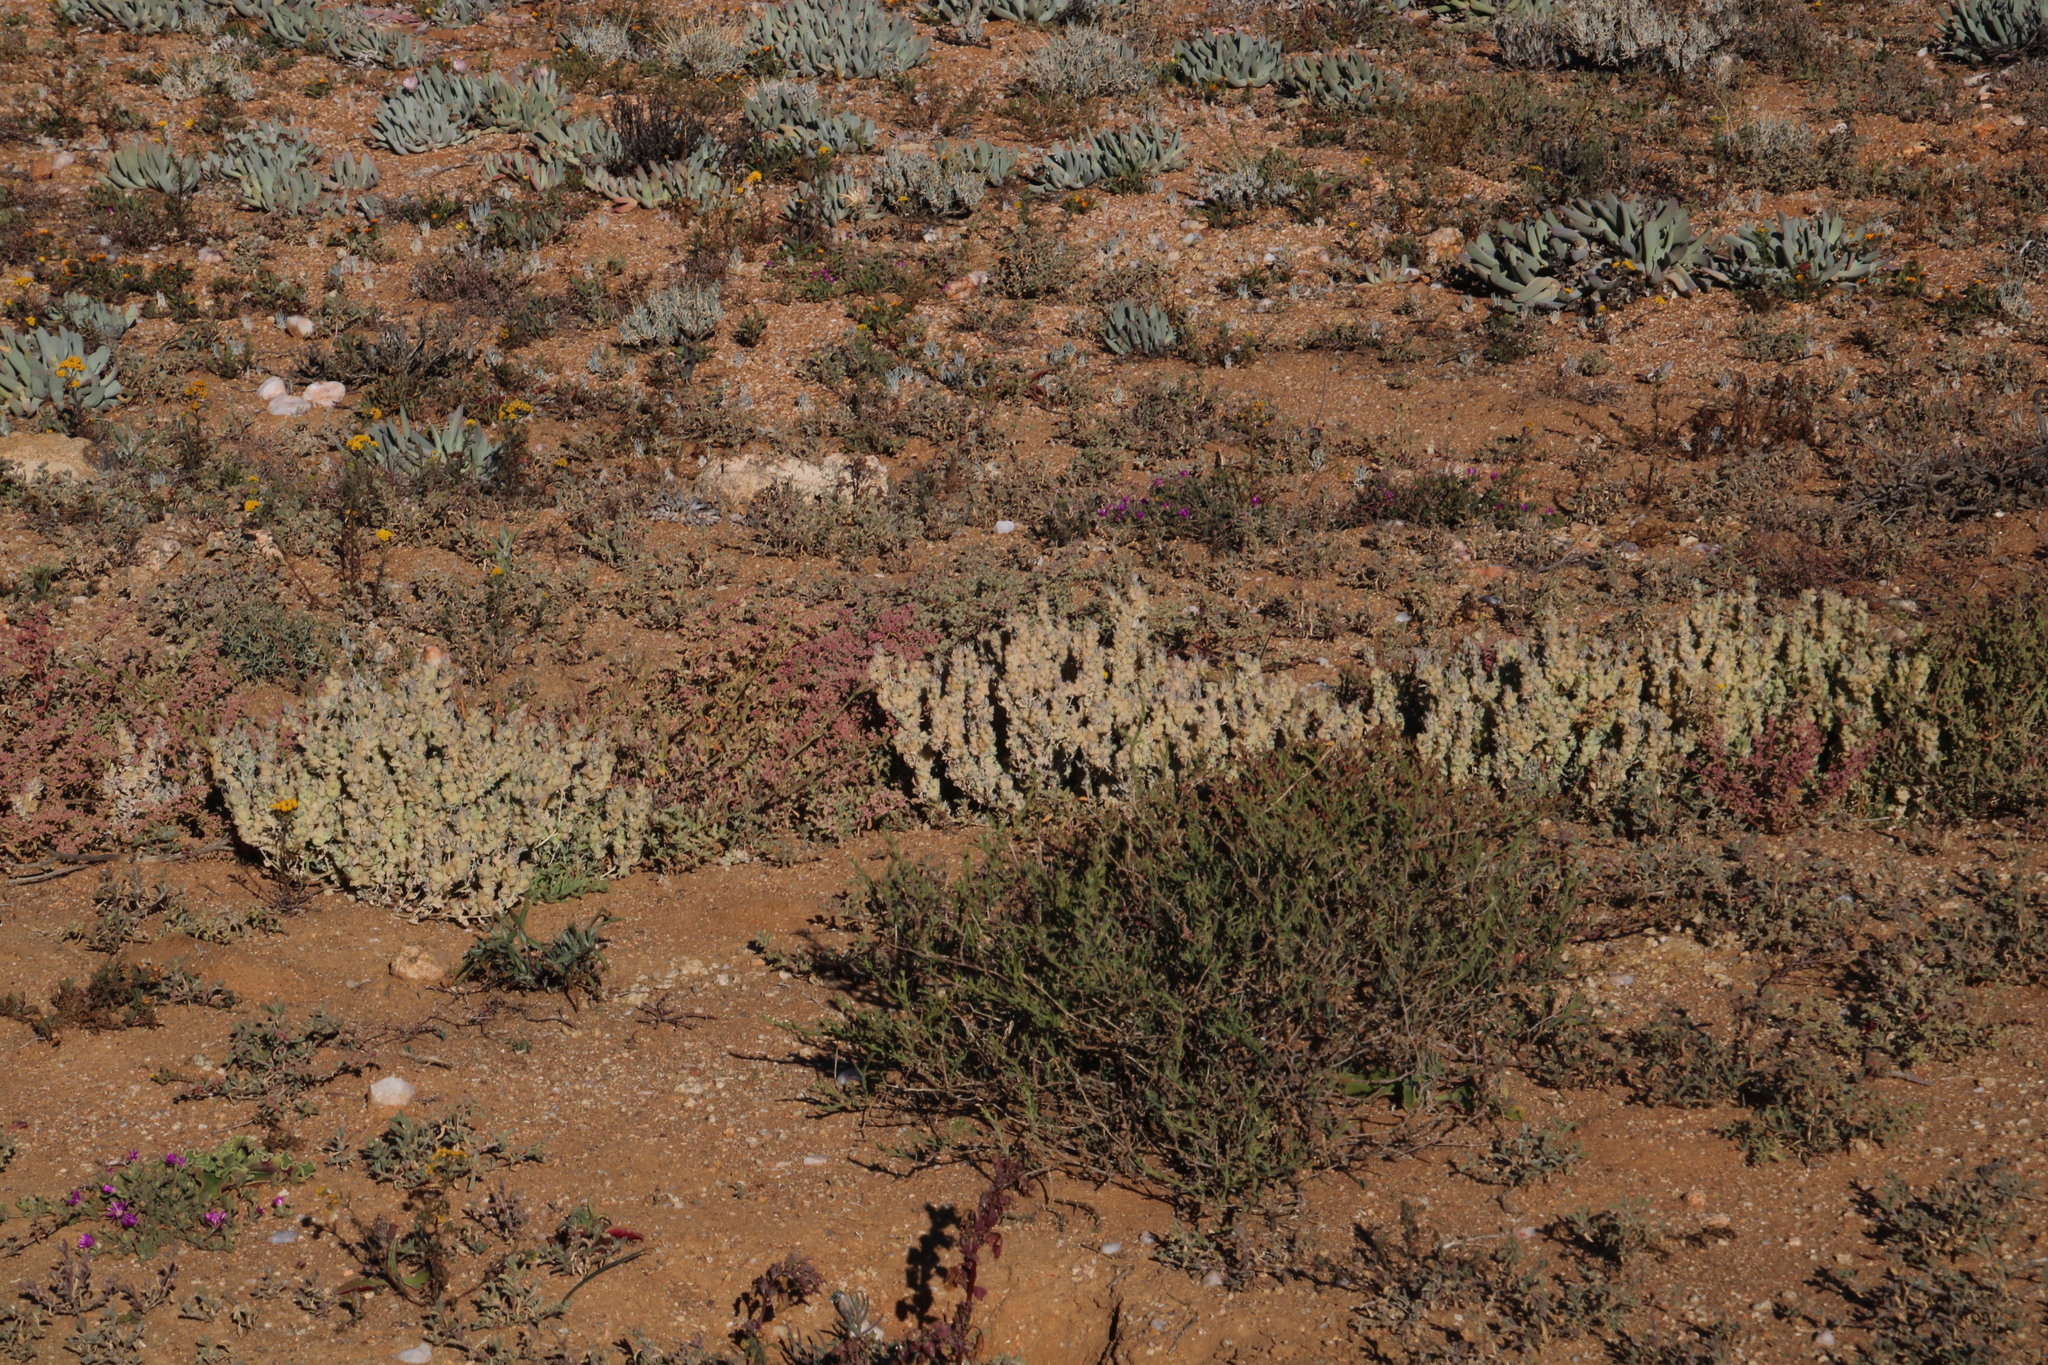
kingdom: Plantae
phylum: Tracheophyta
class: Magnoliopsida
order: Caryophyllales
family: Amaranthaceae
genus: Atriplex
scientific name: Atriplex lindleyi
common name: Lindley's saltbush
